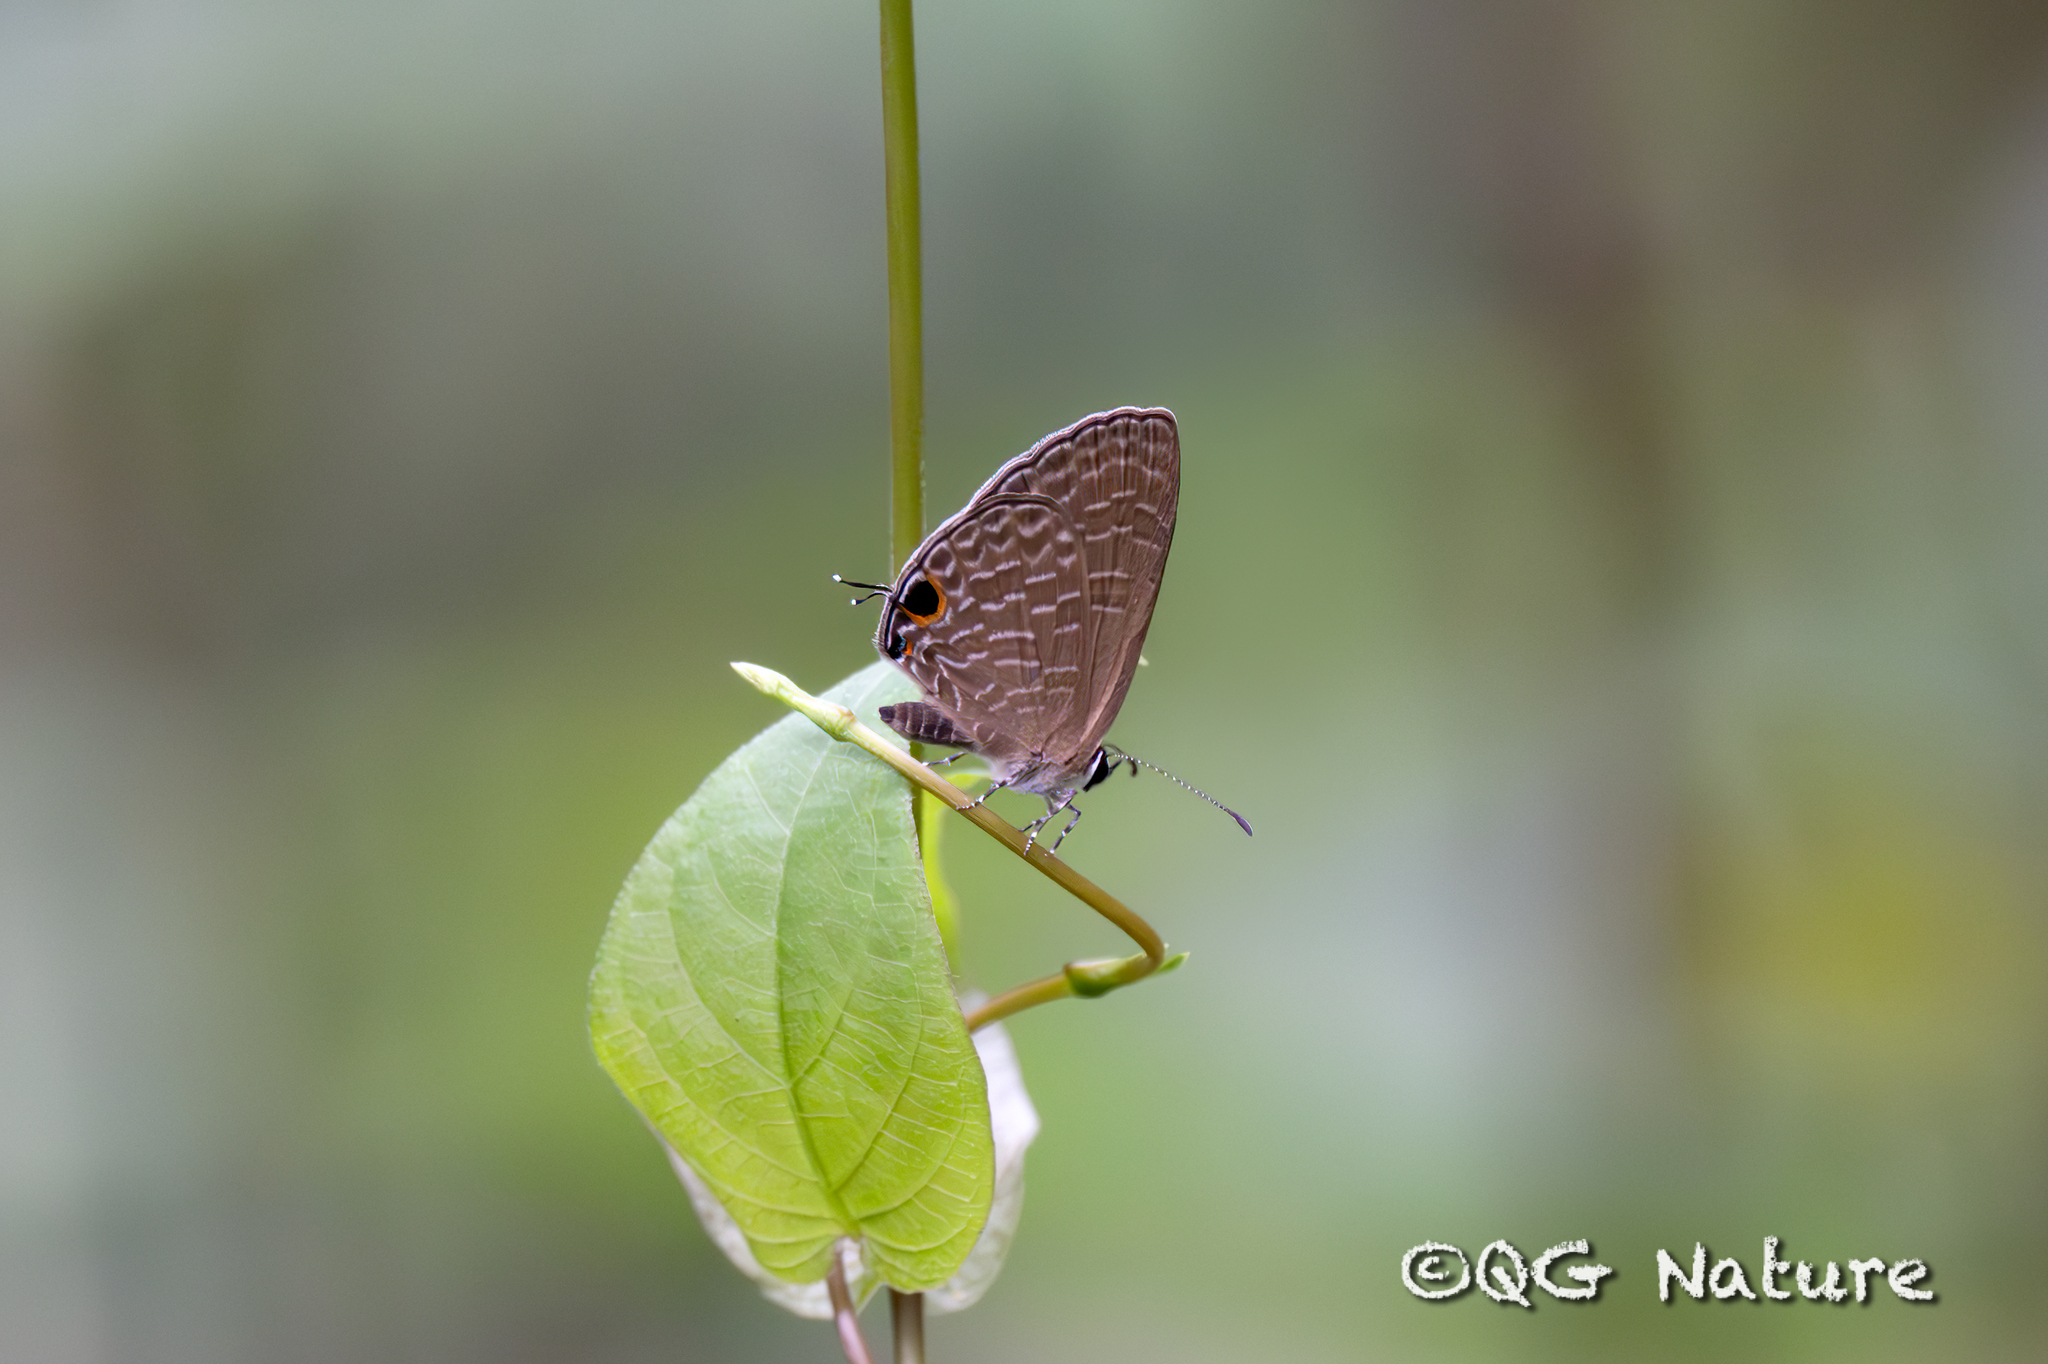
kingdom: Animalia
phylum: Arthropoda
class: Insecta
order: Lepidoptera
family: Lycaenidae
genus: Jamides
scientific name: Jamides bochus
